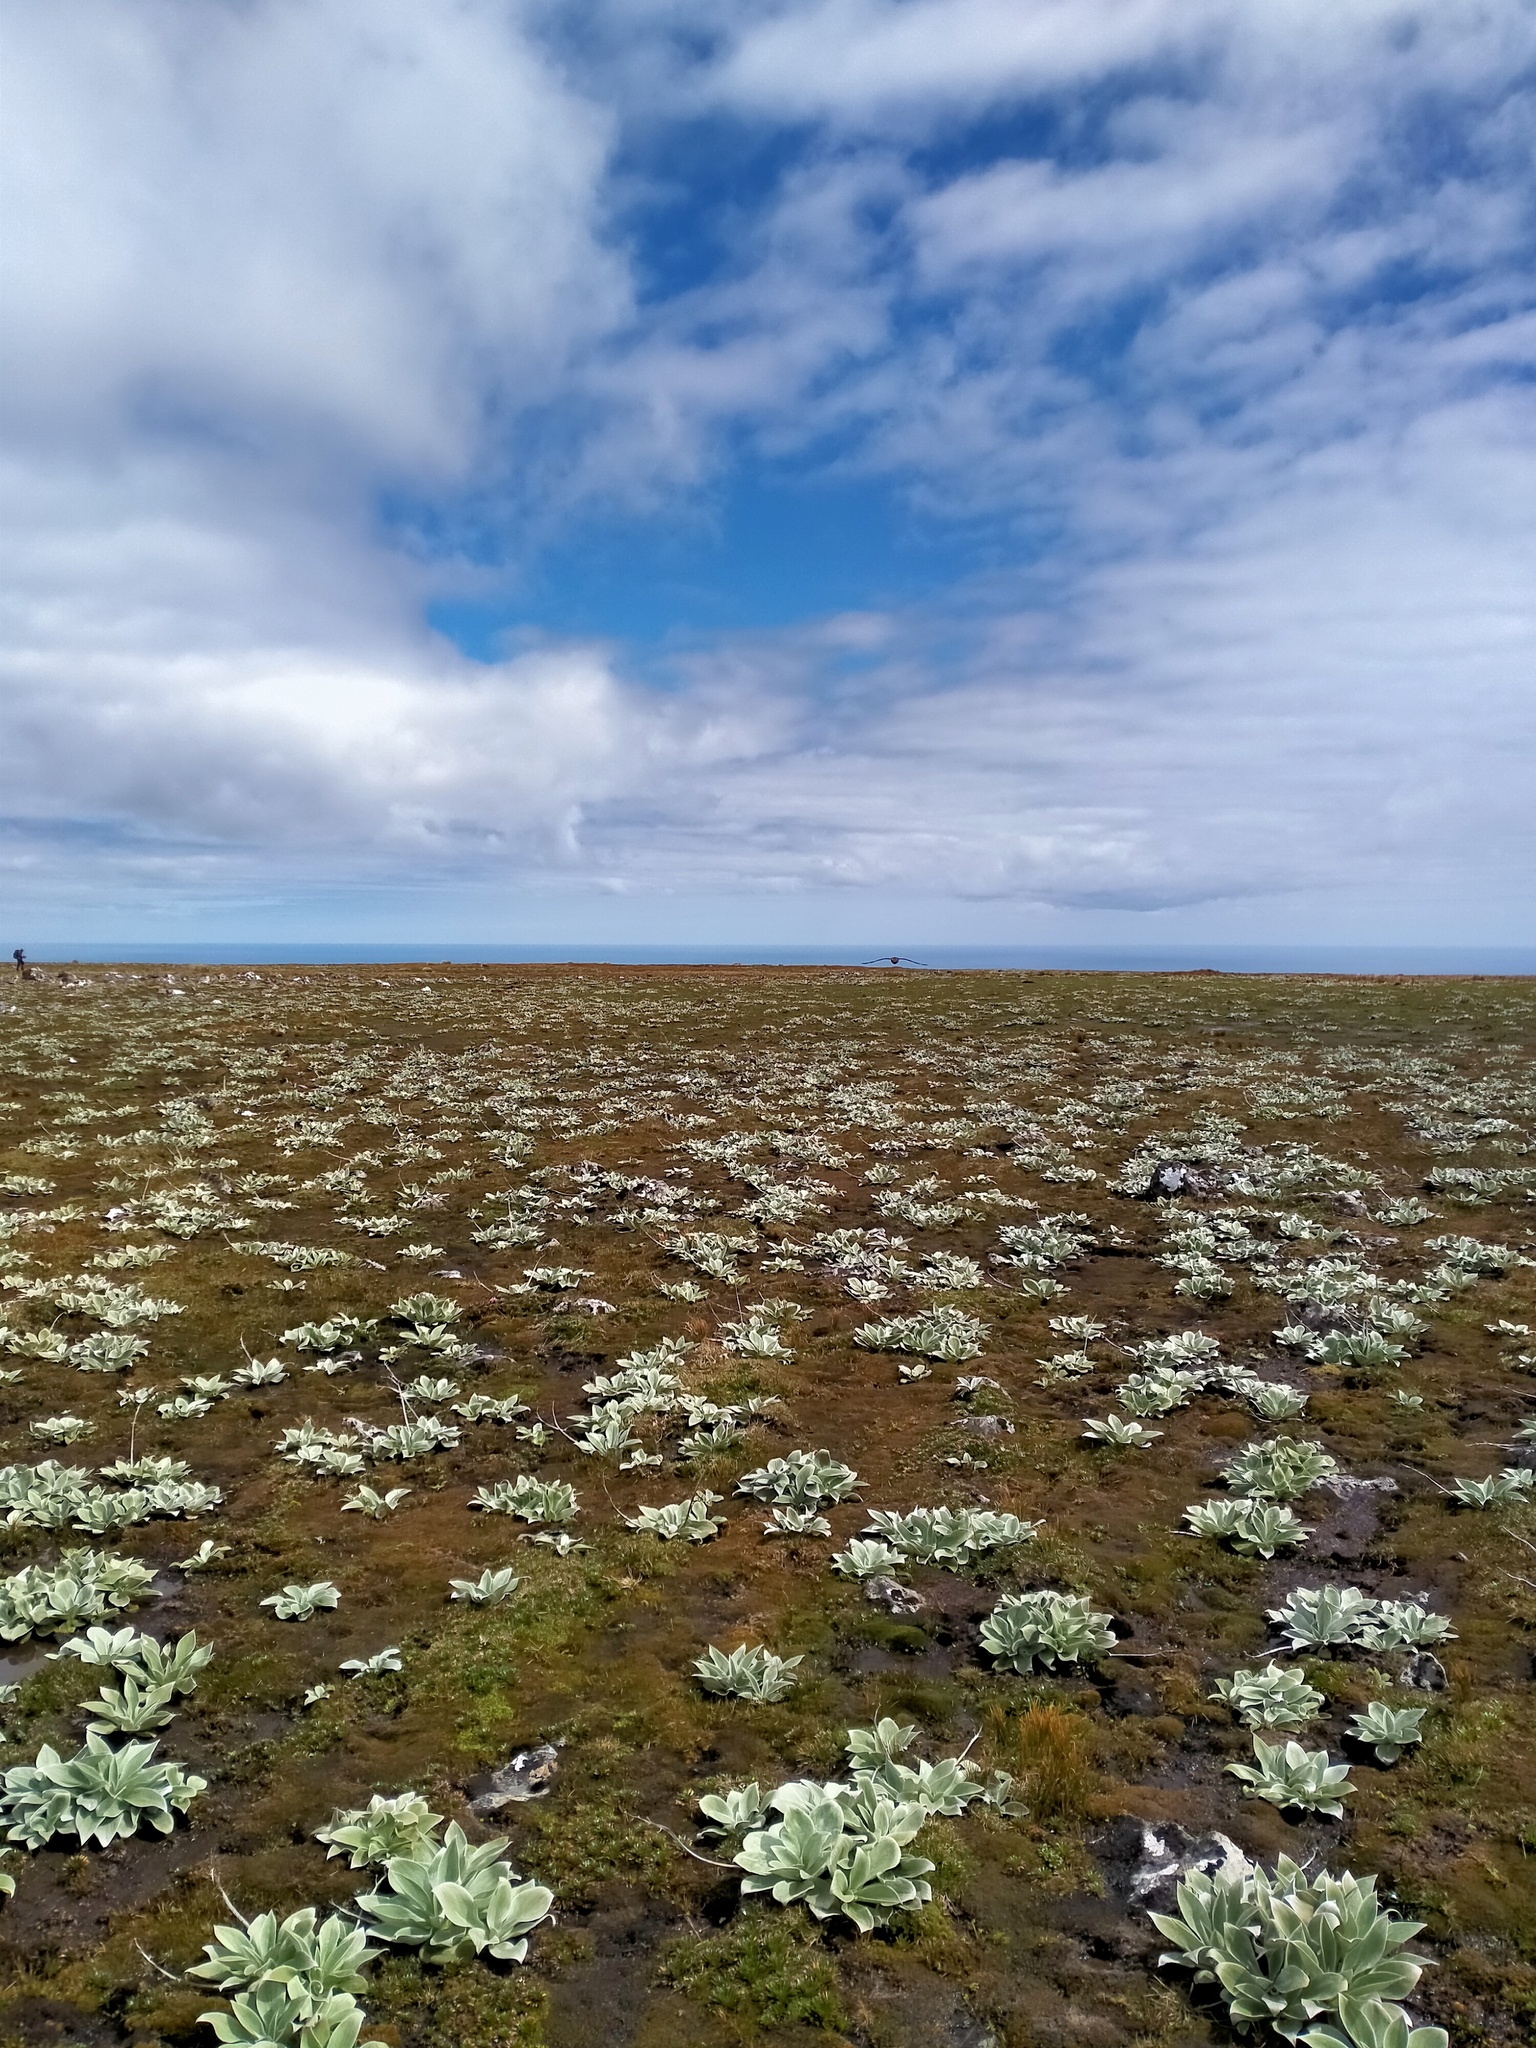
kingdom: Plantae
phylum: Tracheophyta
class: Magnoliopsida
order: Asterales
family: Asteraceae
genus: Pleurophyllum
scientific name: Pleurophyllum hookeri
